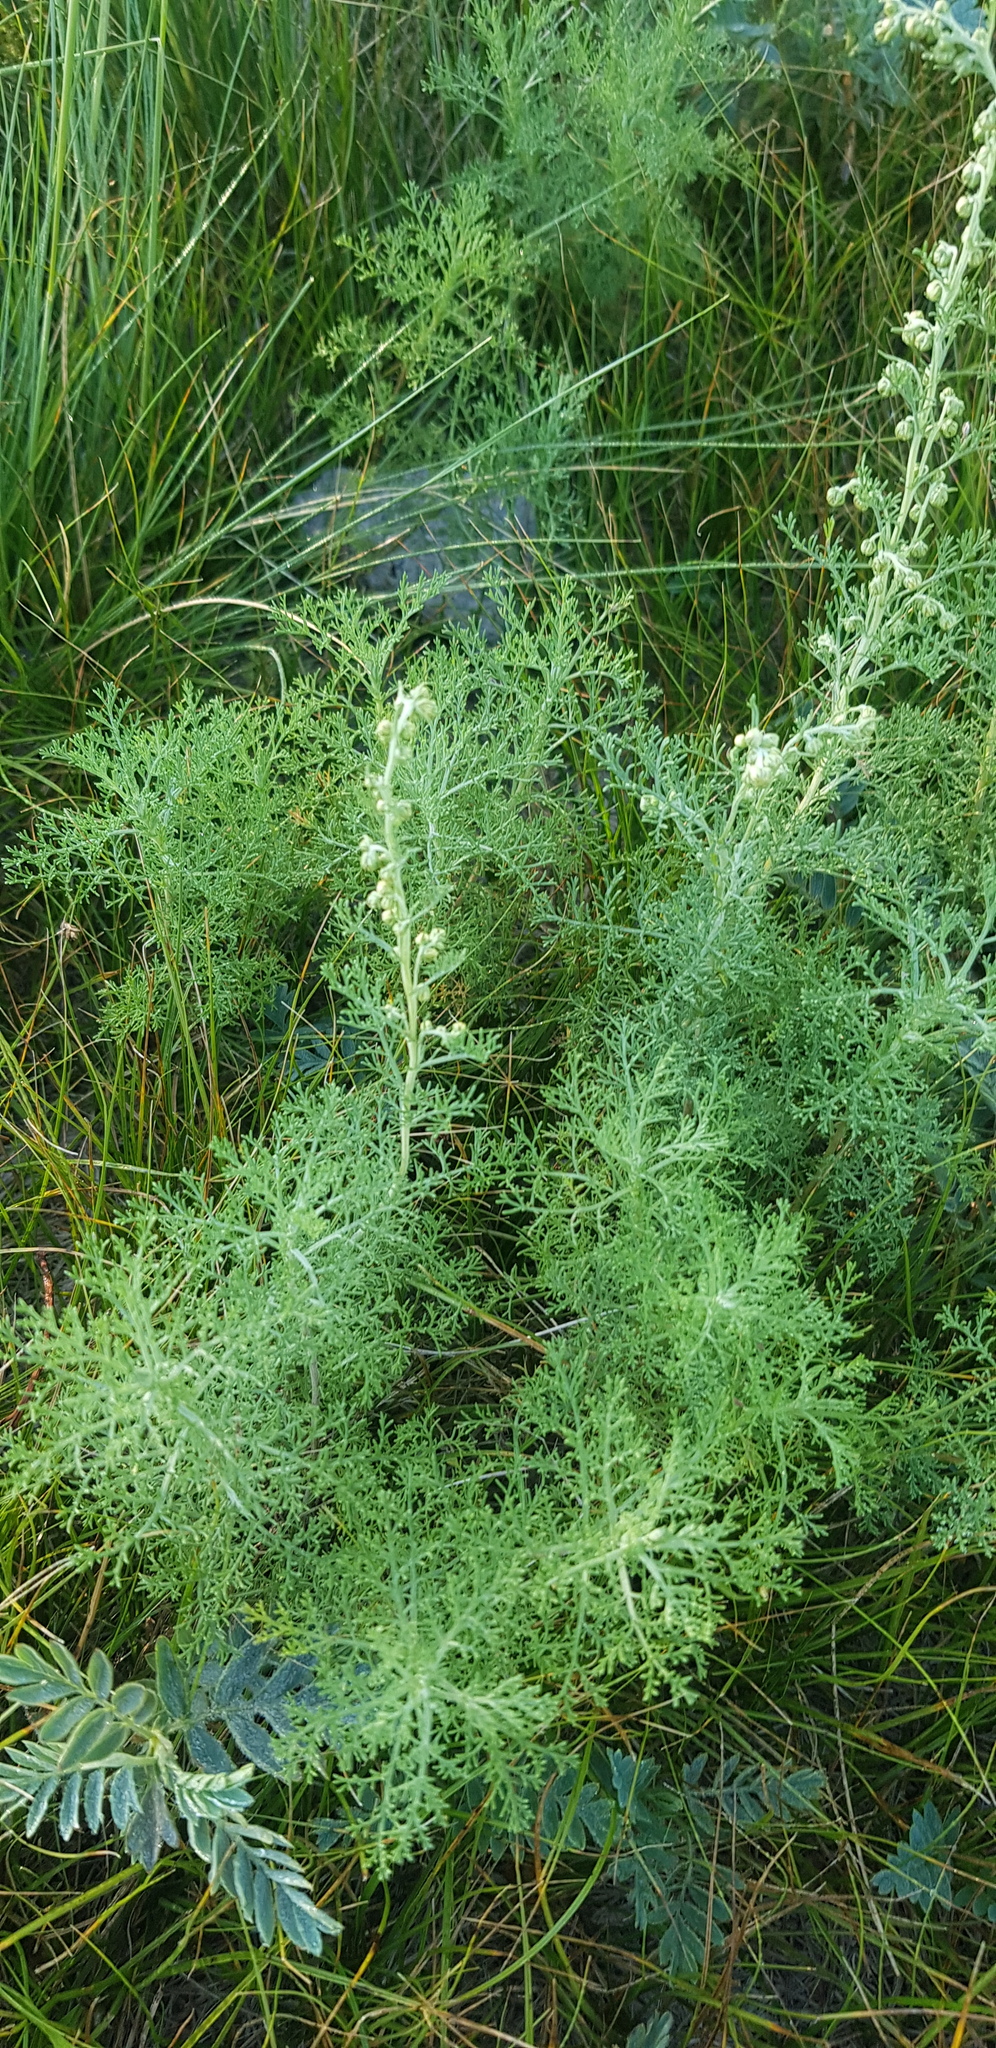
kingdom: Plantae
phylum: Tracheophyta
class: Magnoliopsida
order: Asterales
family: Asteraceae
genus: Artemisia
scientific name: Artemisia adamsii
